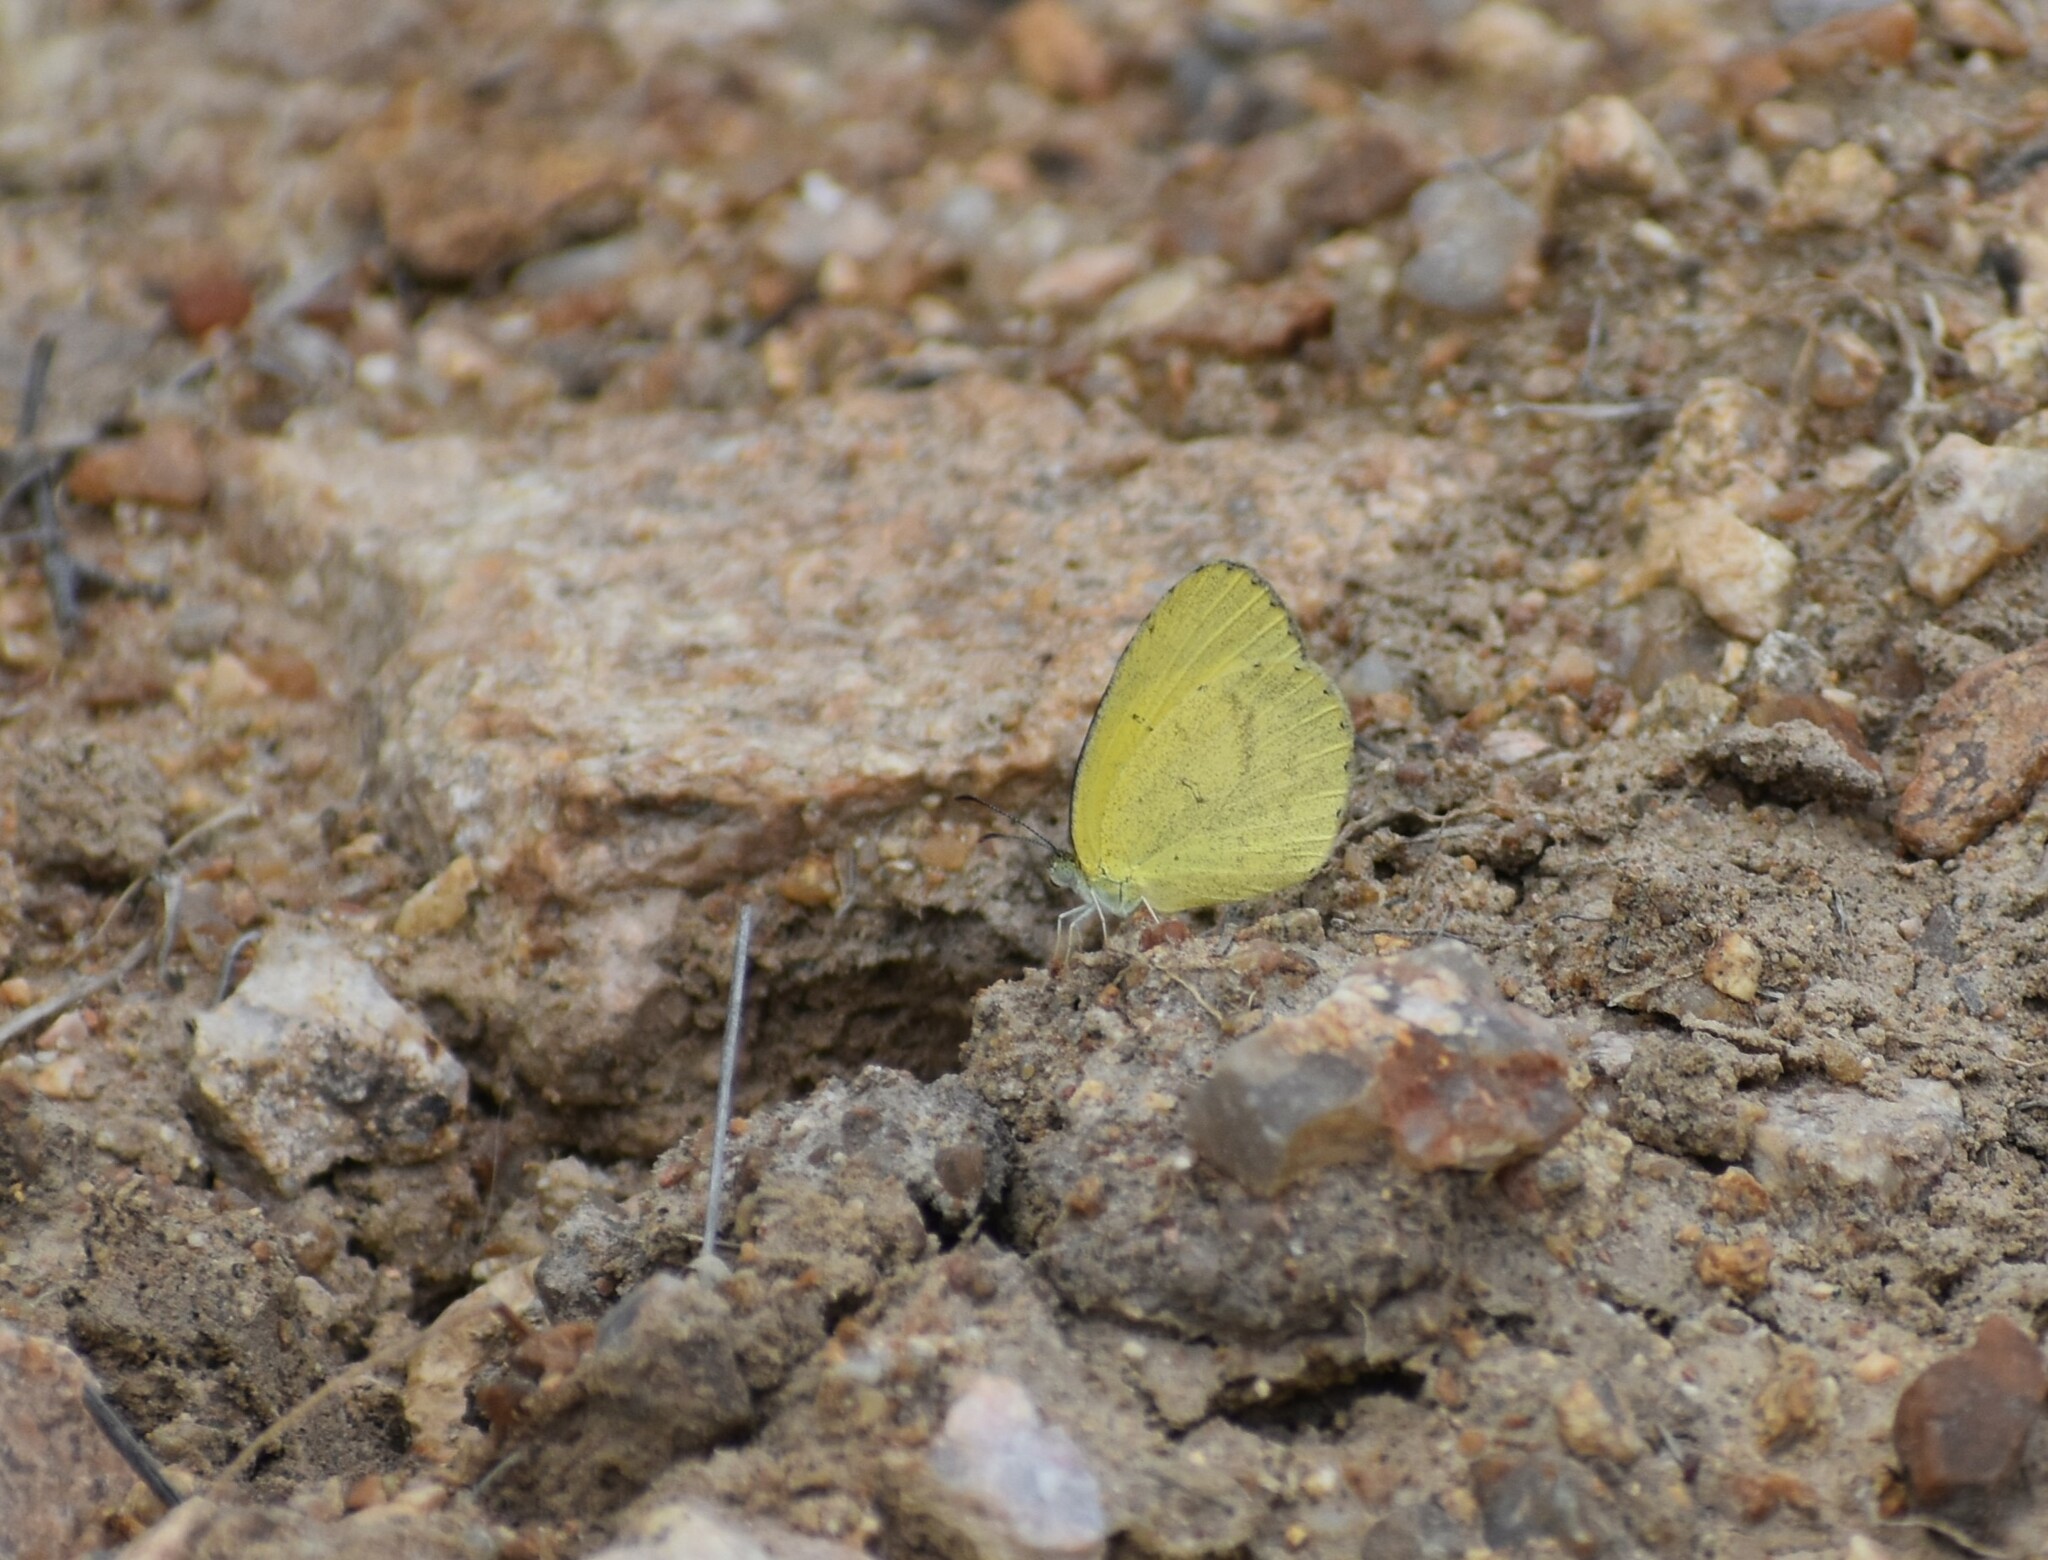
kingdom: Animalia
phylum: Arthropoda
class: Insecta
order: Lepidoptera
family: Pieridae
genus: Eurema
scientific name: Eurema brigitta
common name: Small grass yellow
